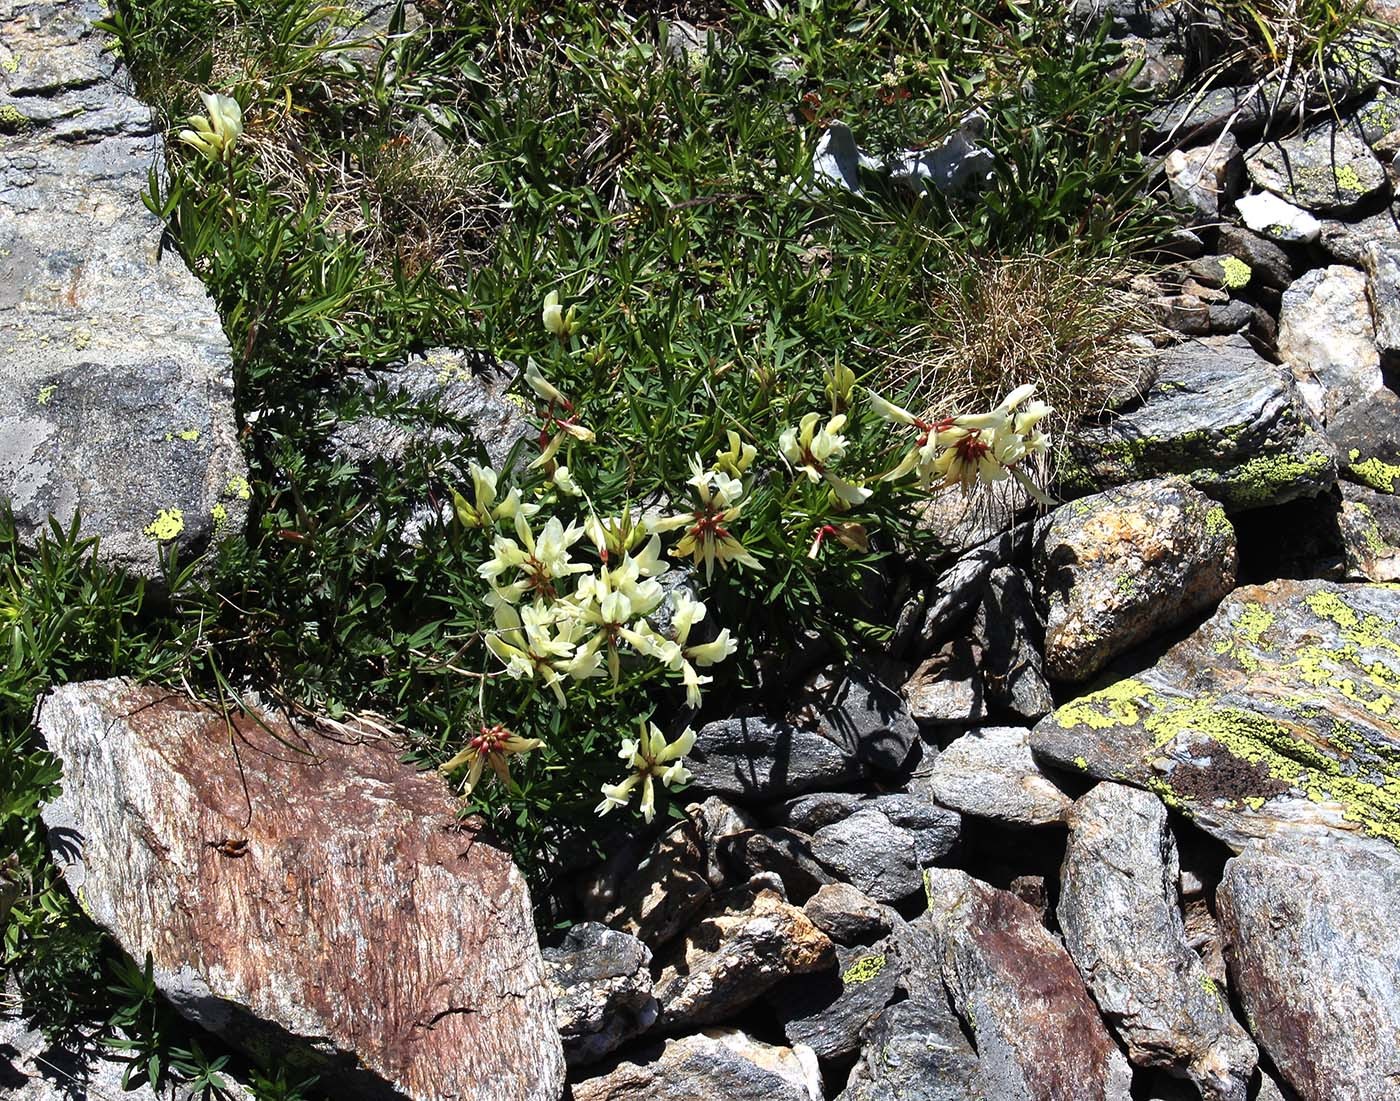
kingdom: Plantae
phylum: Tracheophyta
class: Magnoliopsida
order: Fabales
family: Fabaceae
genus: Trifolium
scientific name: Trifolium polyphyllum
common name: Many-leaf clover
